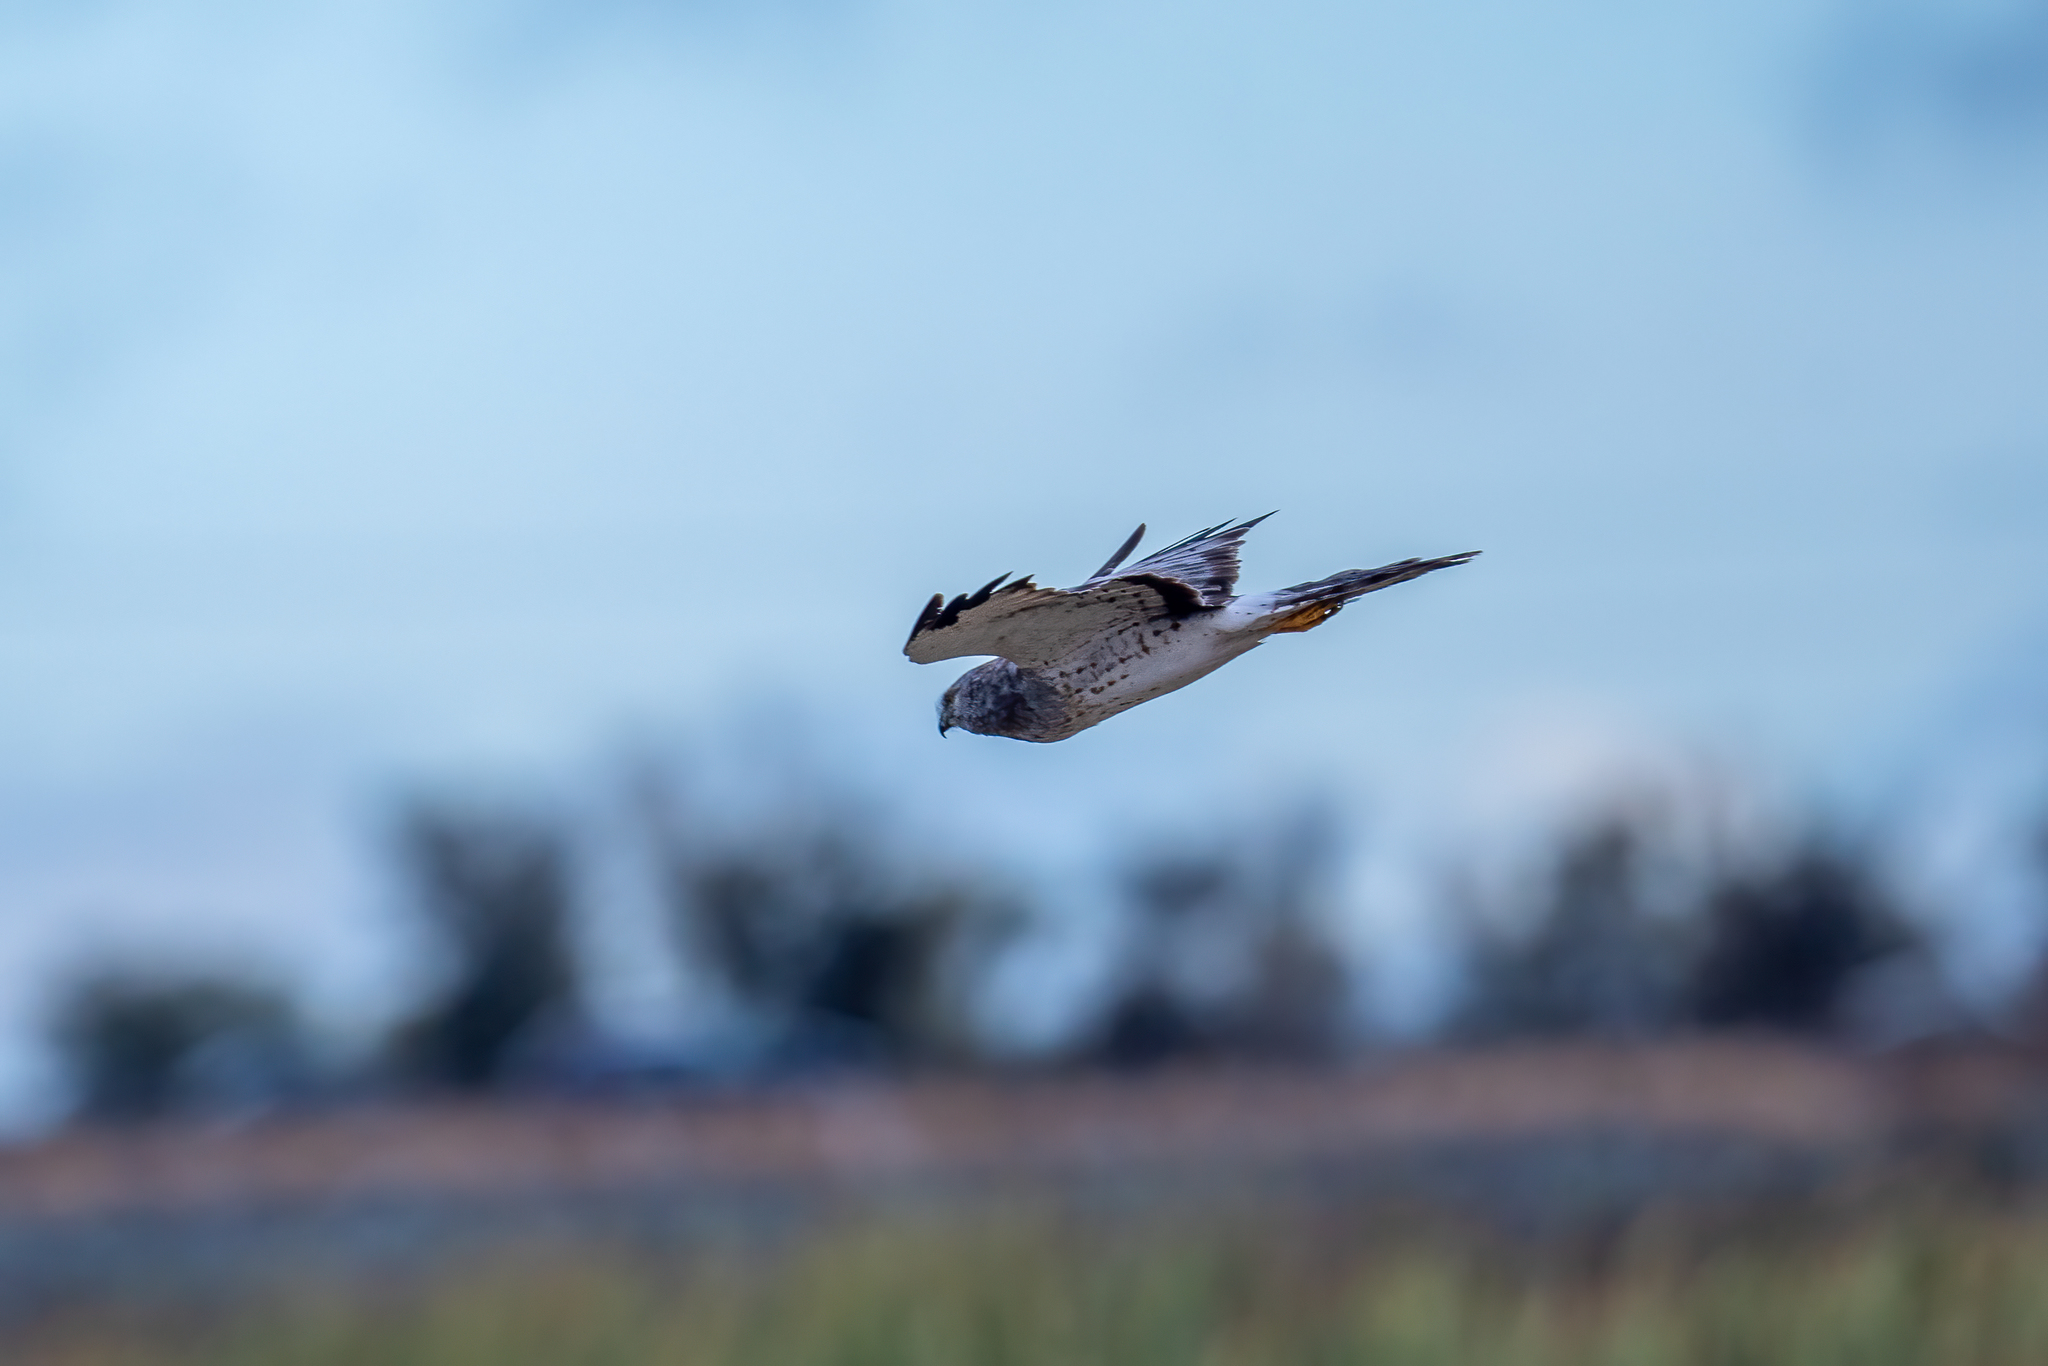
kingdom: Animalia
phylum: Chordata
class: Aves
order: Accipitriformes
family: Accipitridae
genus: Circus
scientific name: Circus cyaneus
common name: Hen harrier
